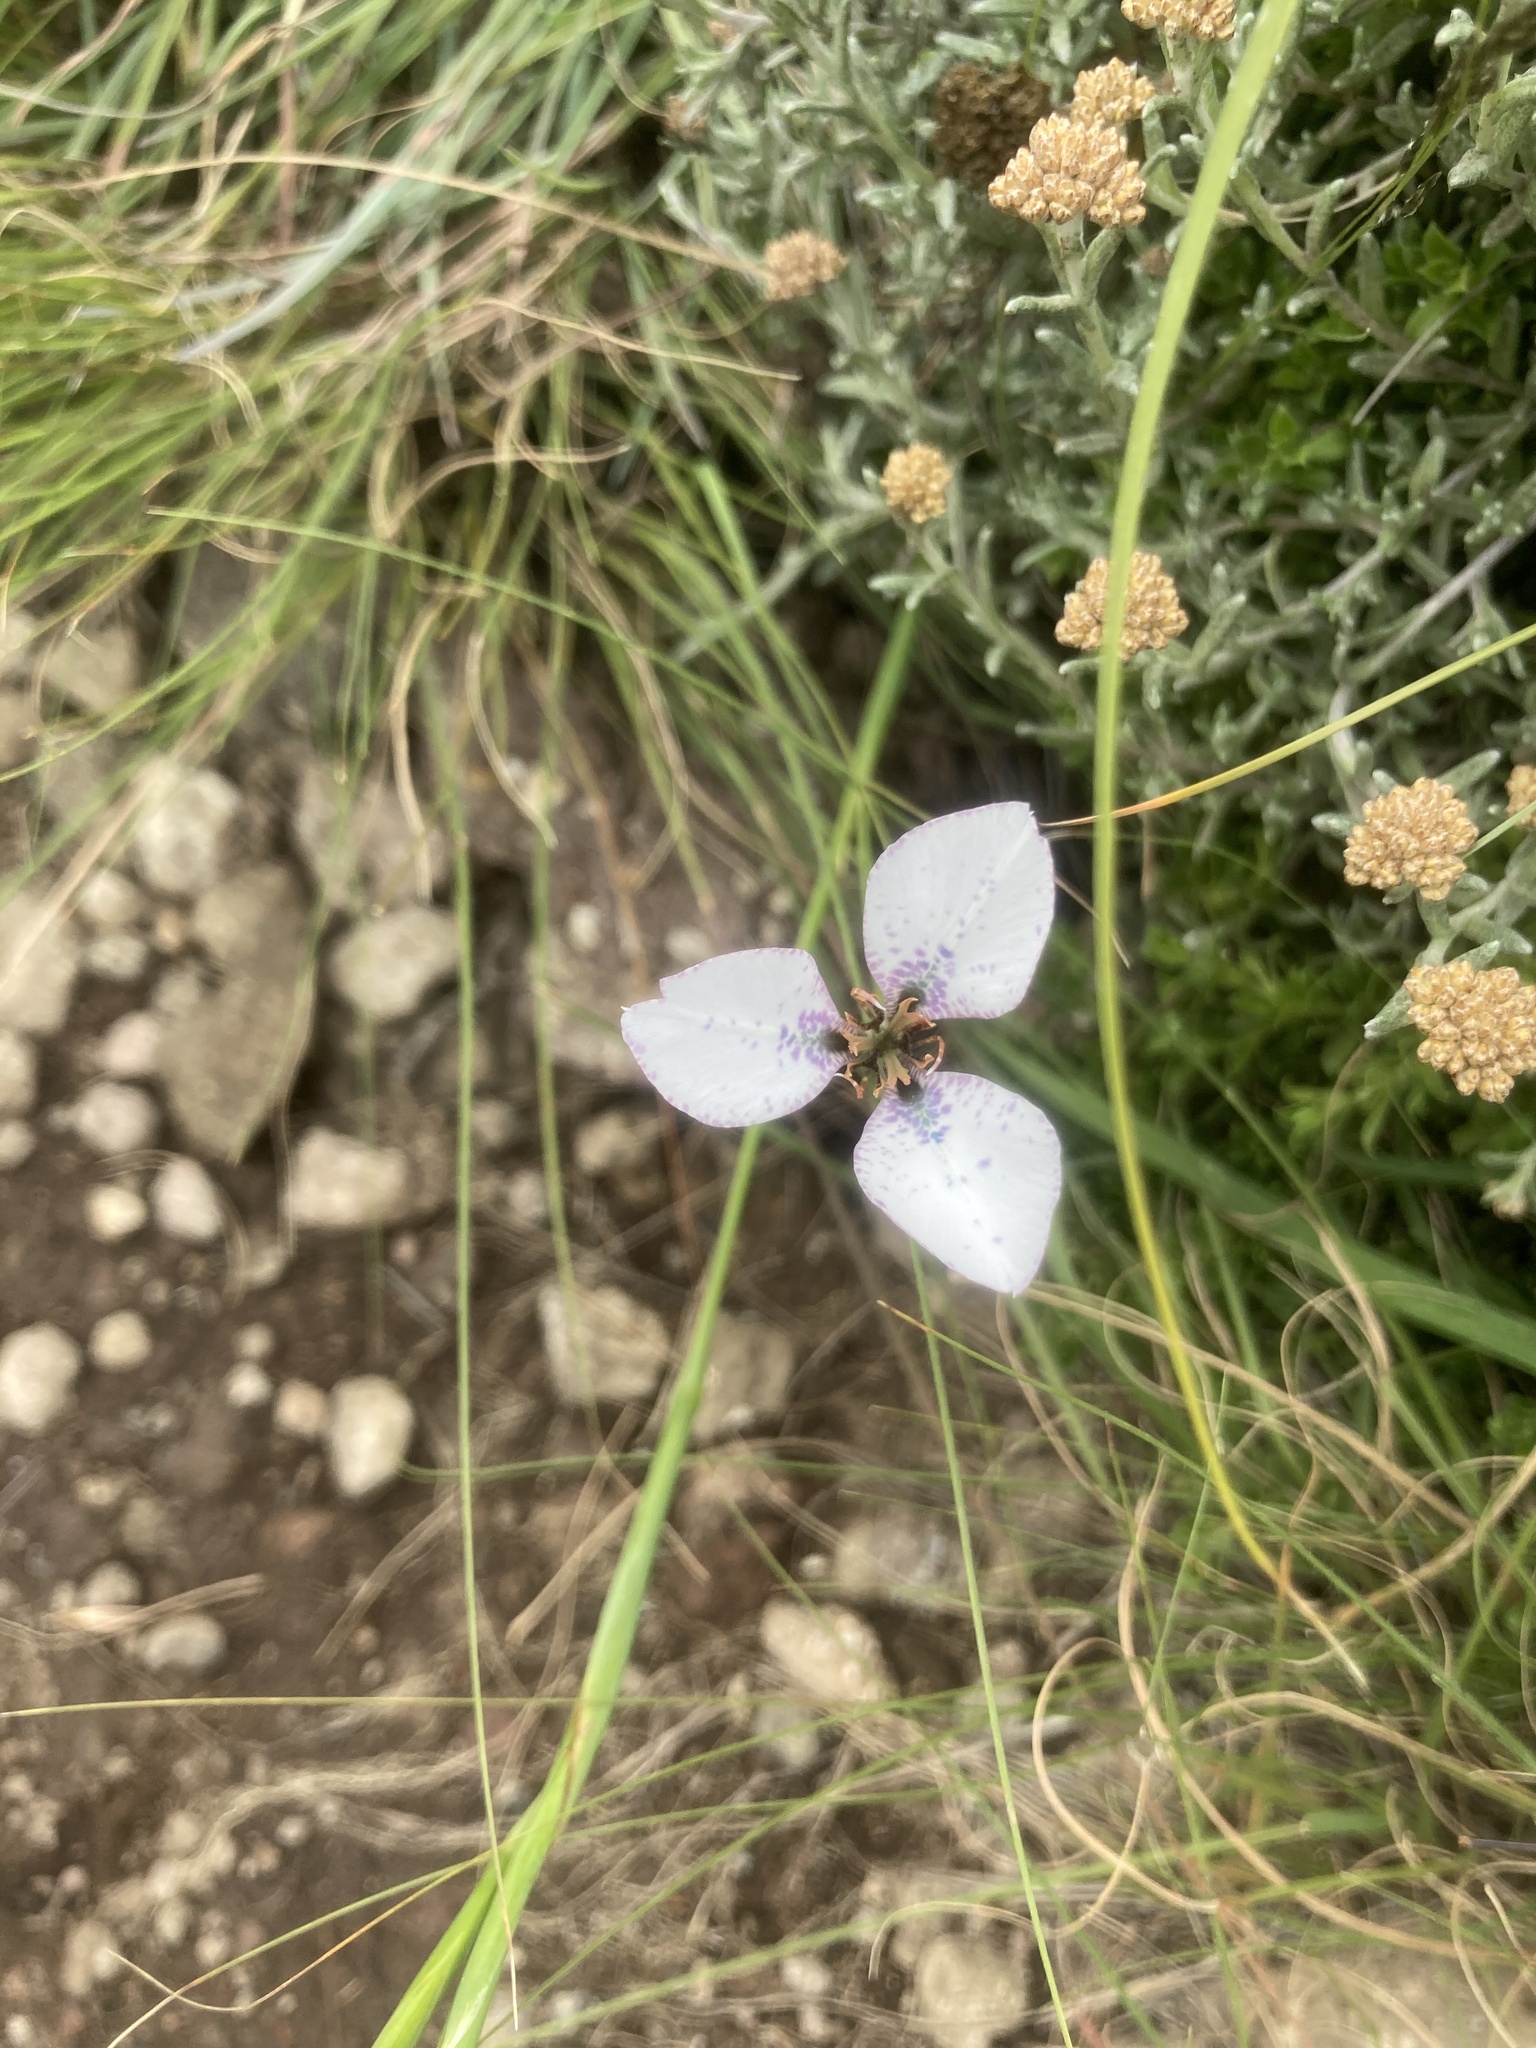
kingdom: Plantae
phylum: Tracheophyta
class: Liliopsida
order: Asparagales
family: Iridaceae
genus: Moraea
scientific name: Moraea vigilans
